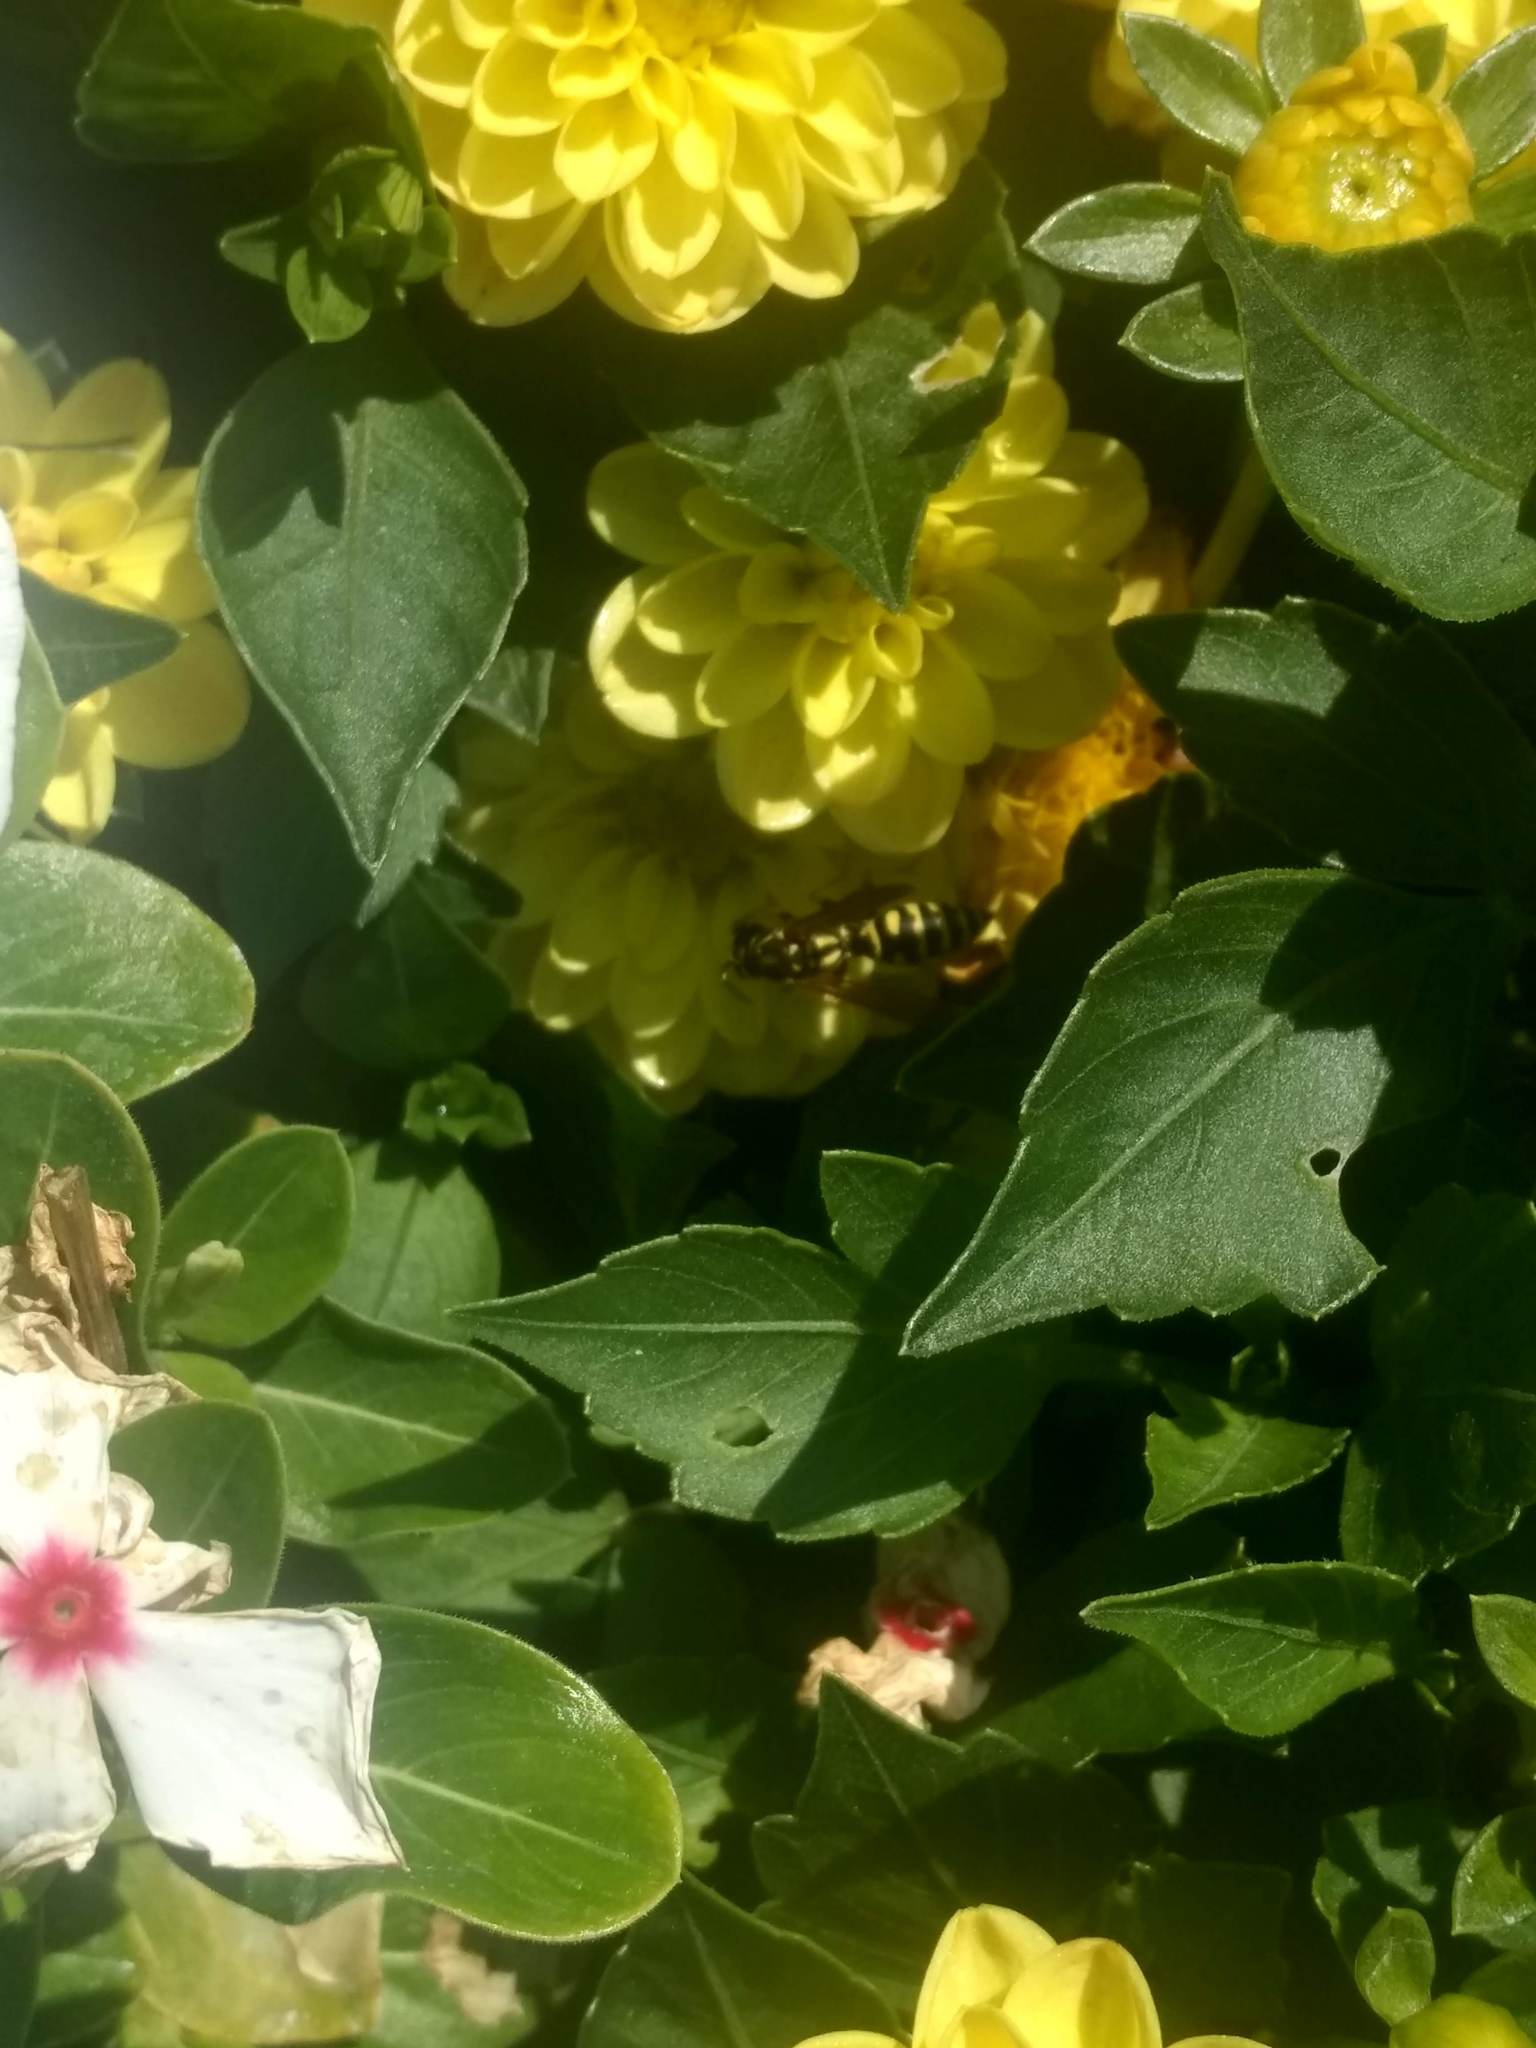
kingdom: Animalia
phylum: Arthropoda
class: Insecta
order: Hymenoptera
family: Eumenidae
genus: Polistes
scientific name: Polistes dominula
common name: Paper wasp
